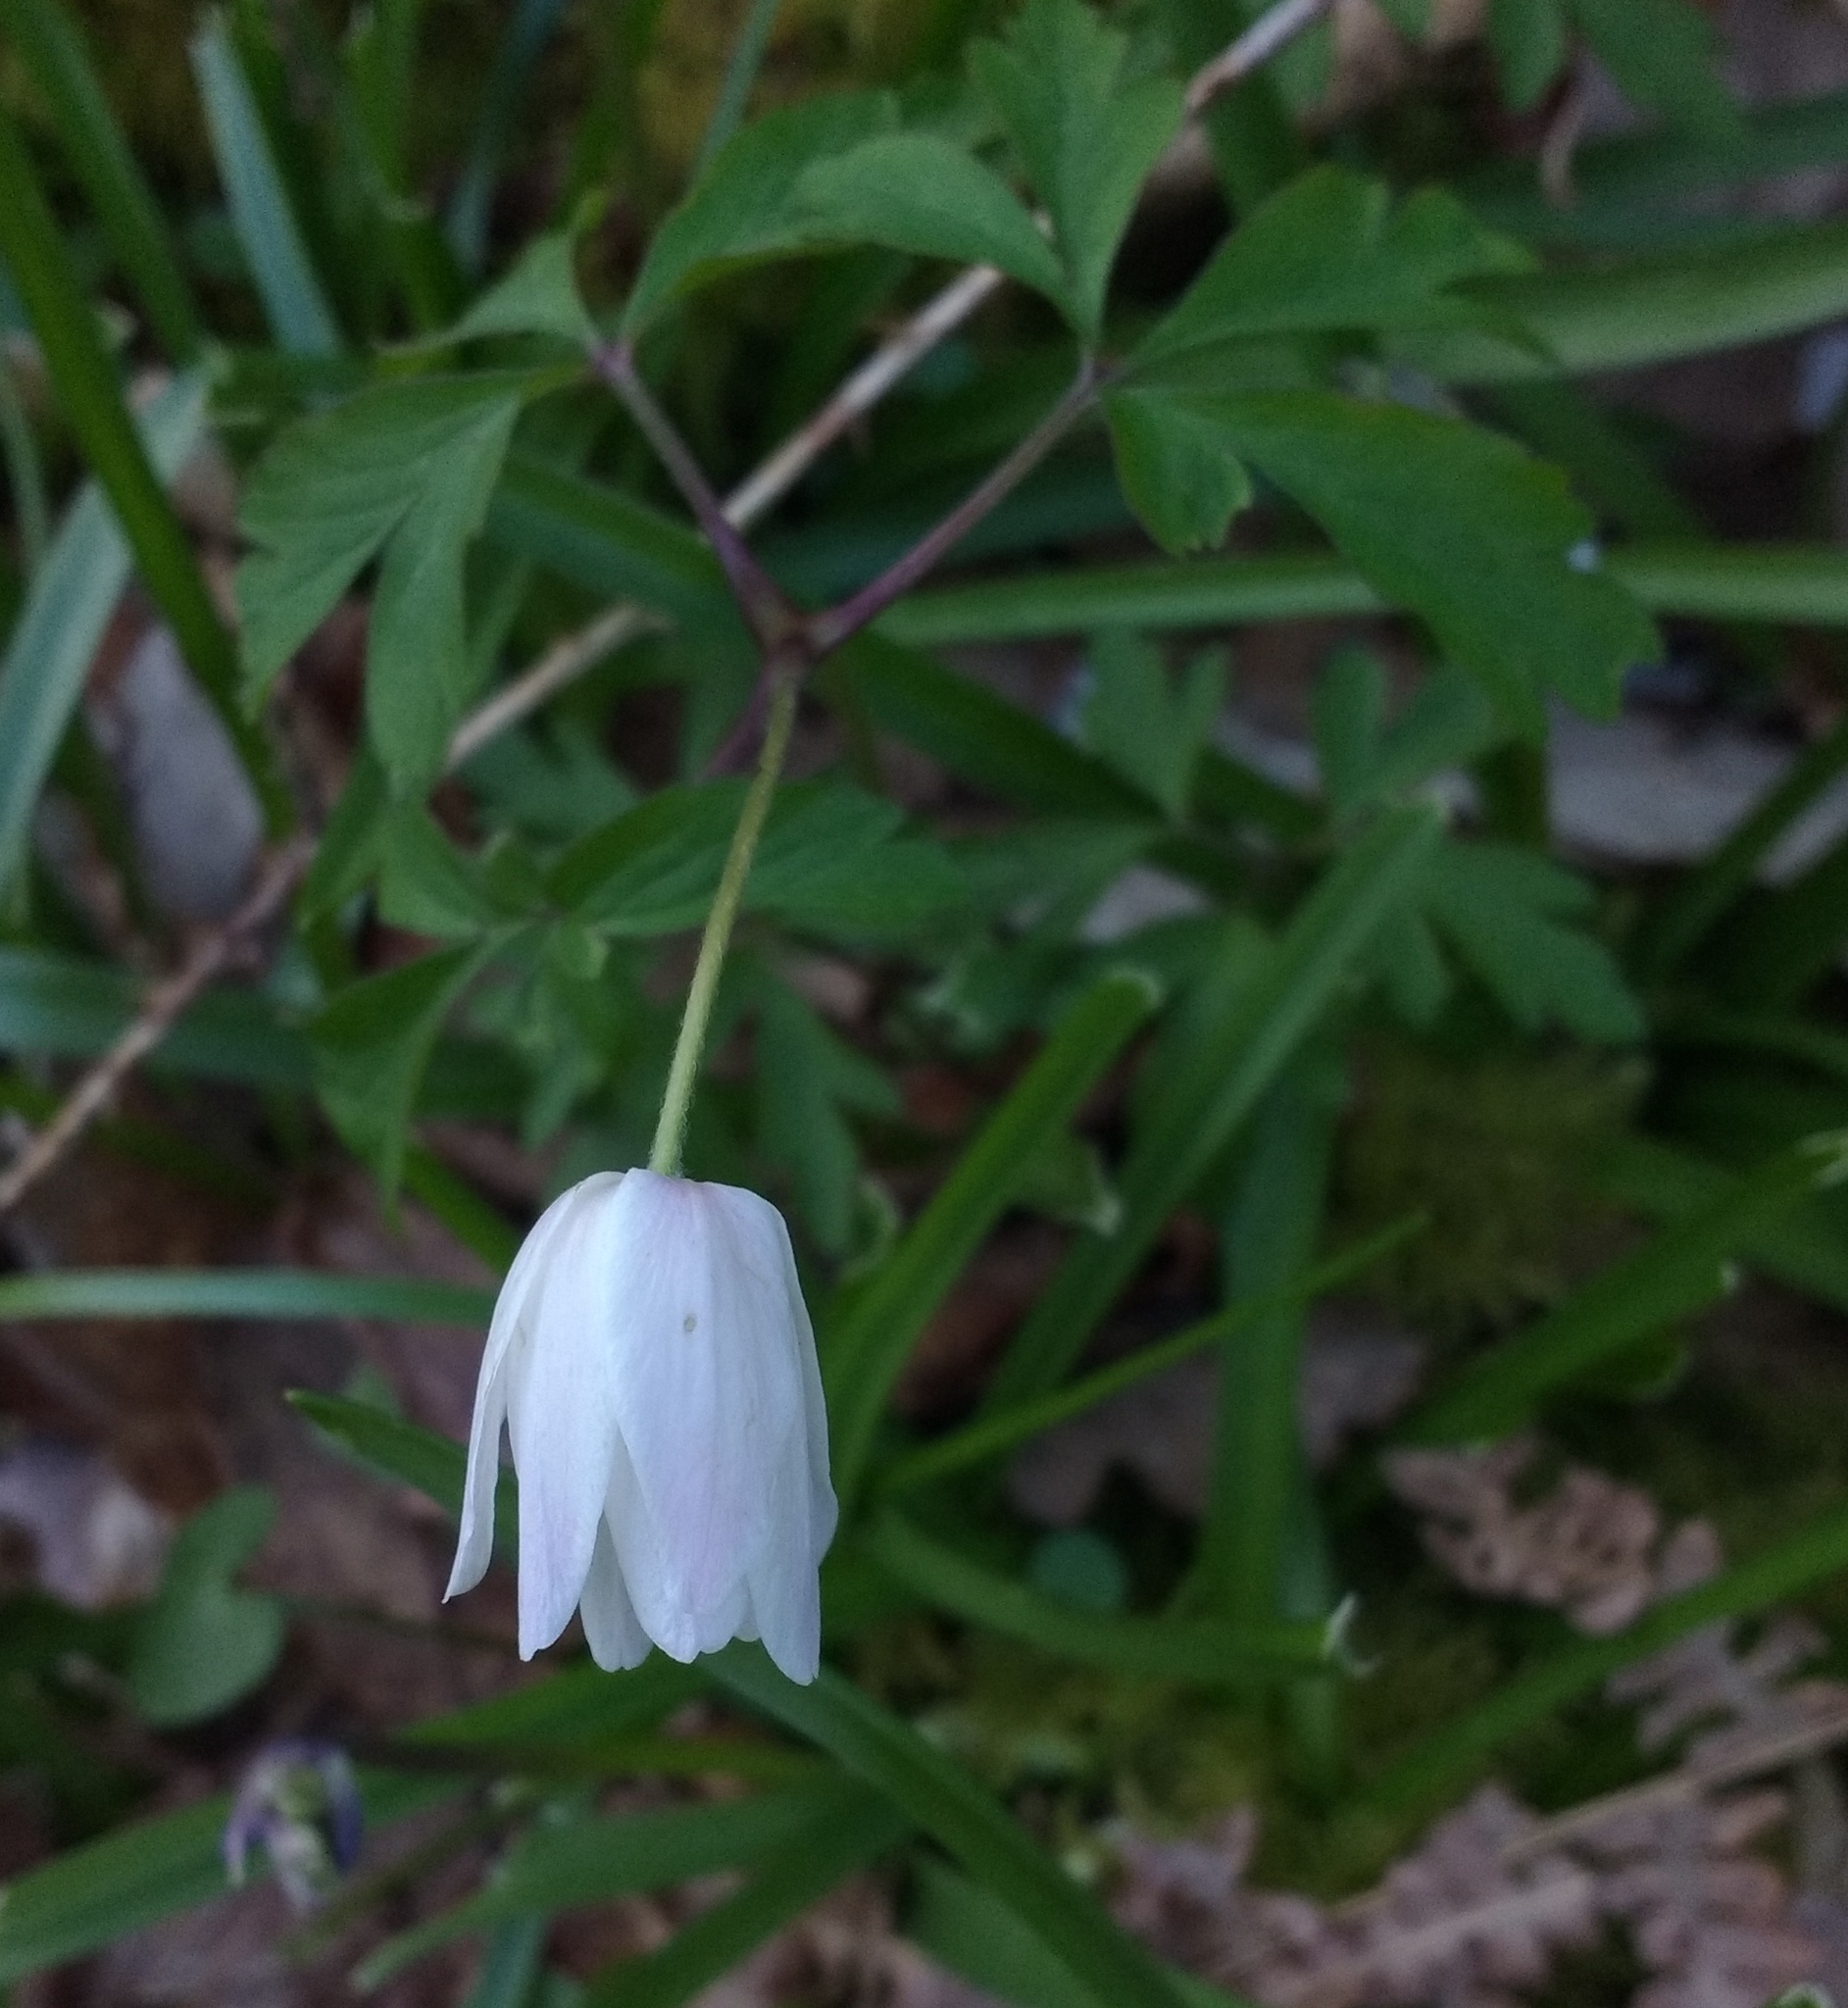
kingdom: Plantae
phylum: Tracheophyta
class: Magnoliopsida
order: Ranunculales
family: Ranunculaceae
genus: Anemone
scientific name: Anemone nemorosa
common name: Wood anemone
